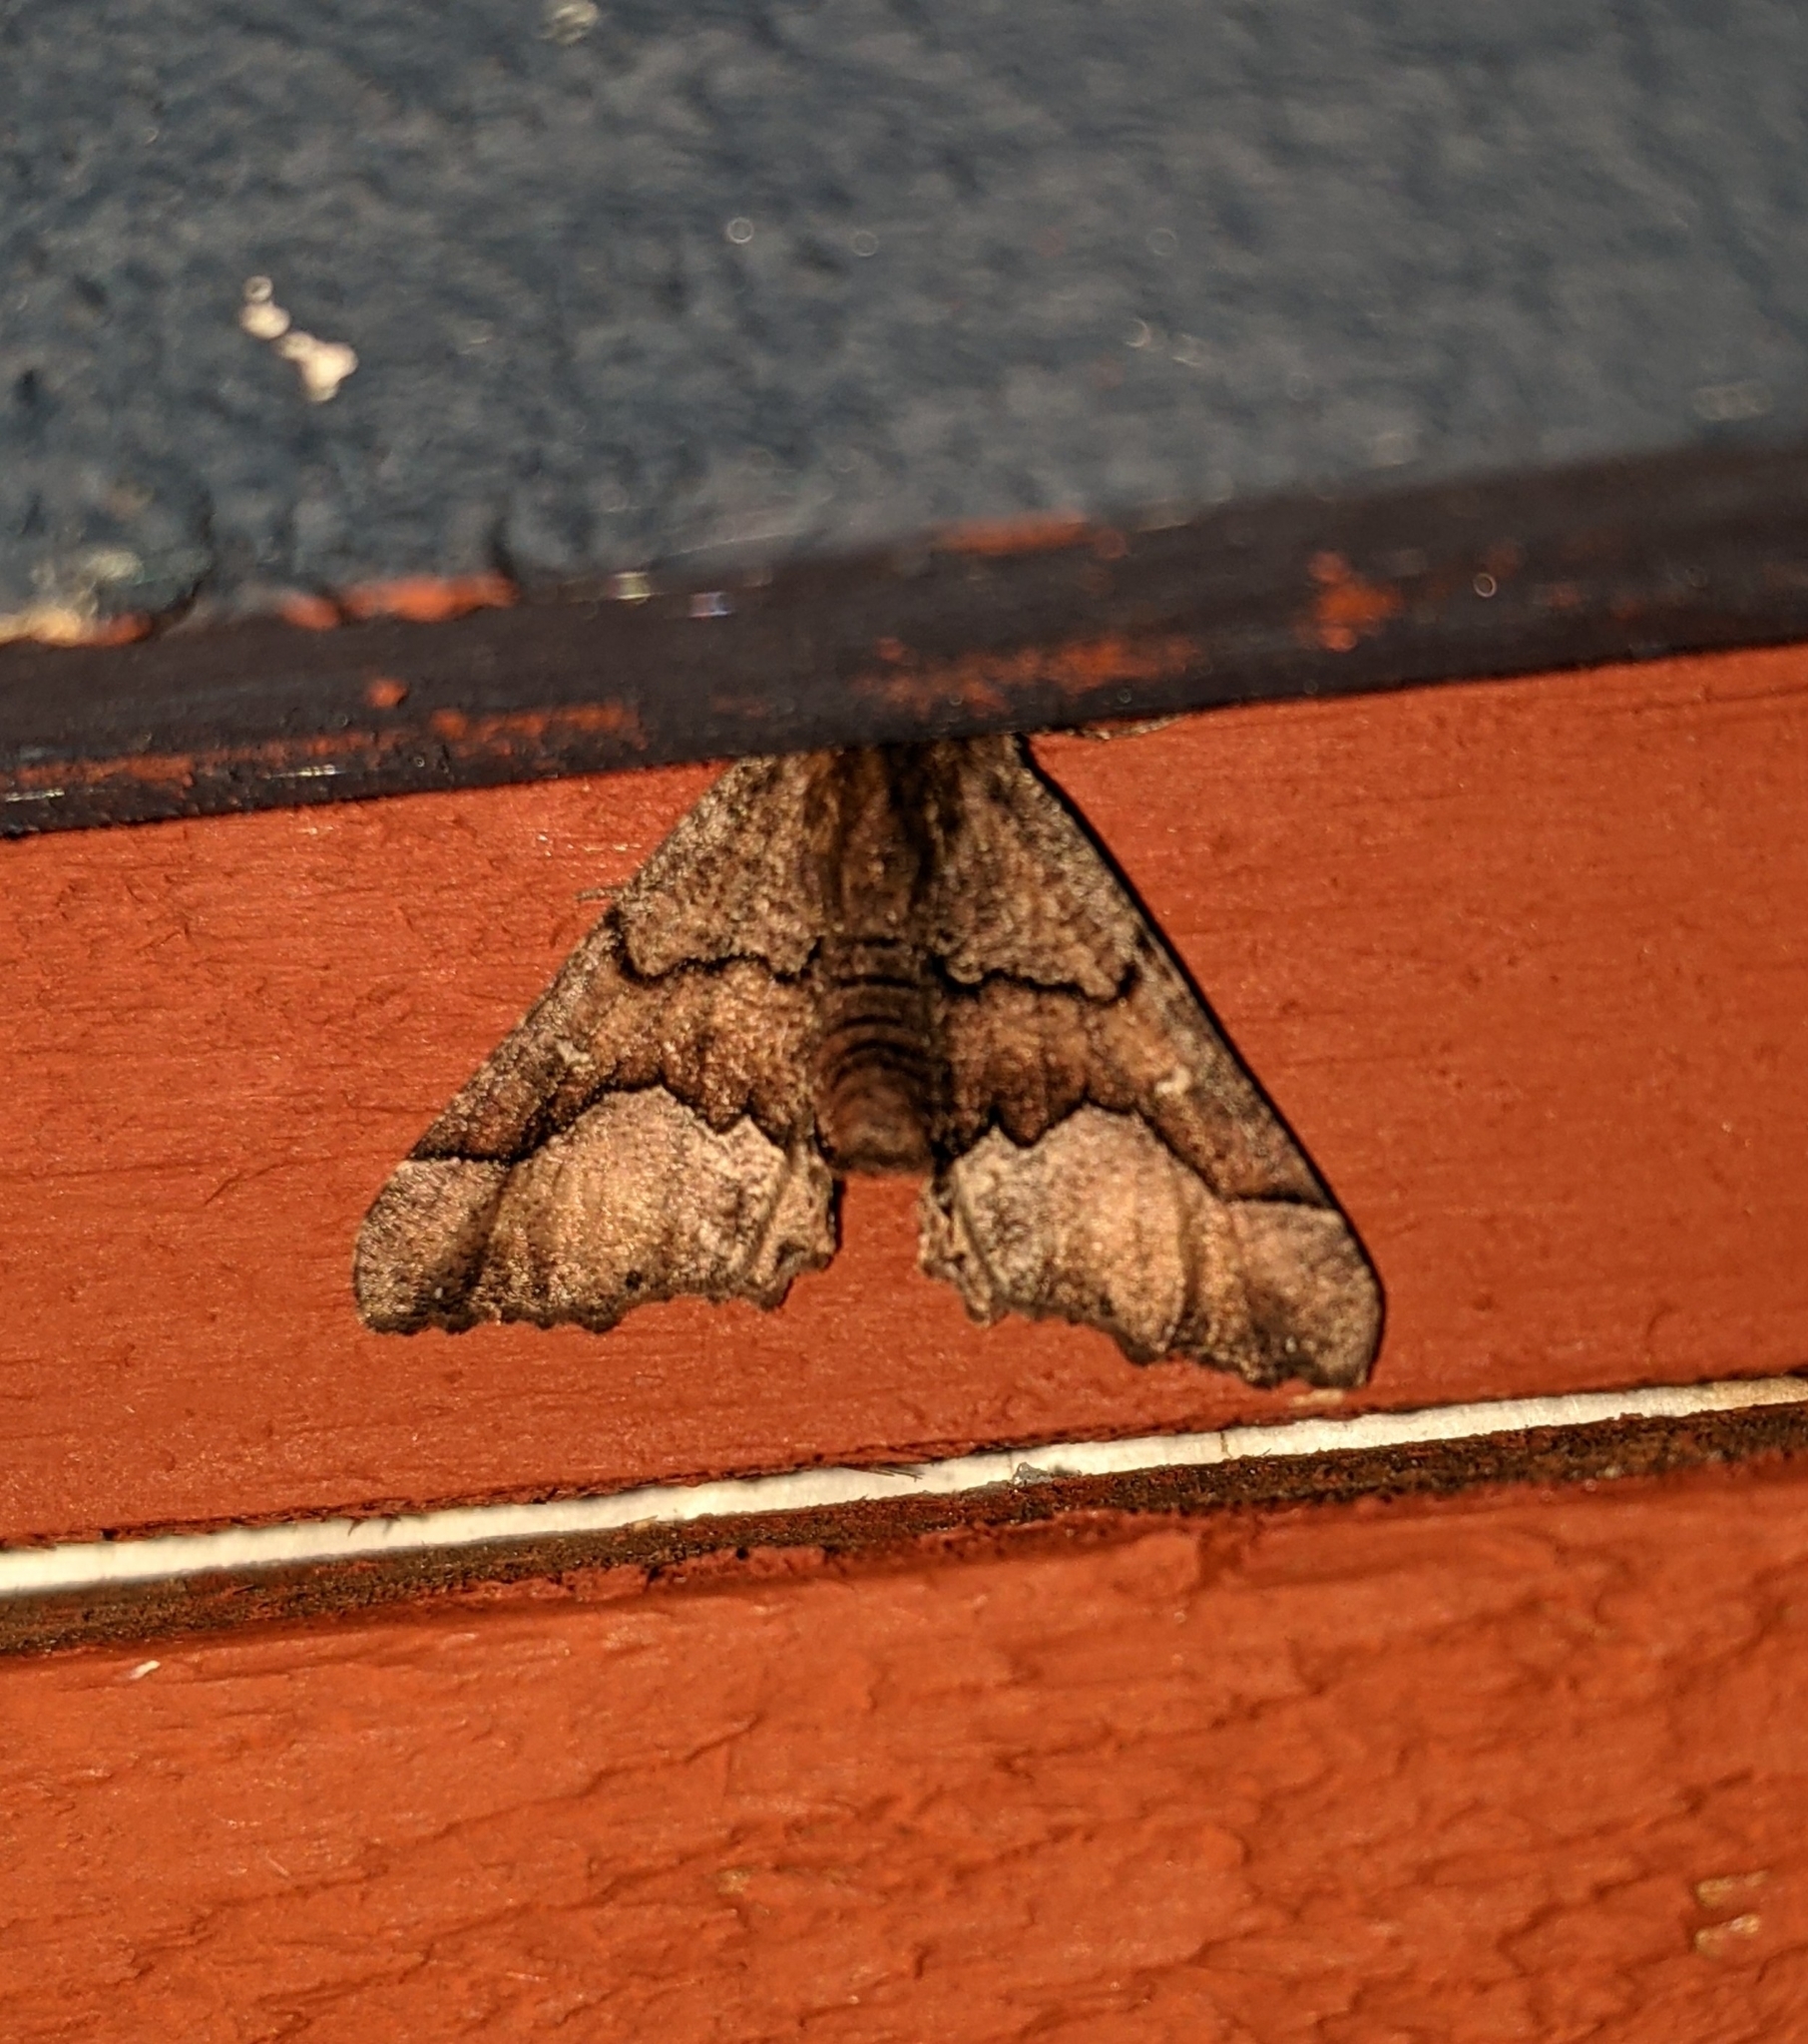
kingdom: Animalia
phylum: Arthropoda
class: Insecta
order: Lepidoptera
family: Geometridae
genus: Pero
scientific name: Pero behrensaria
